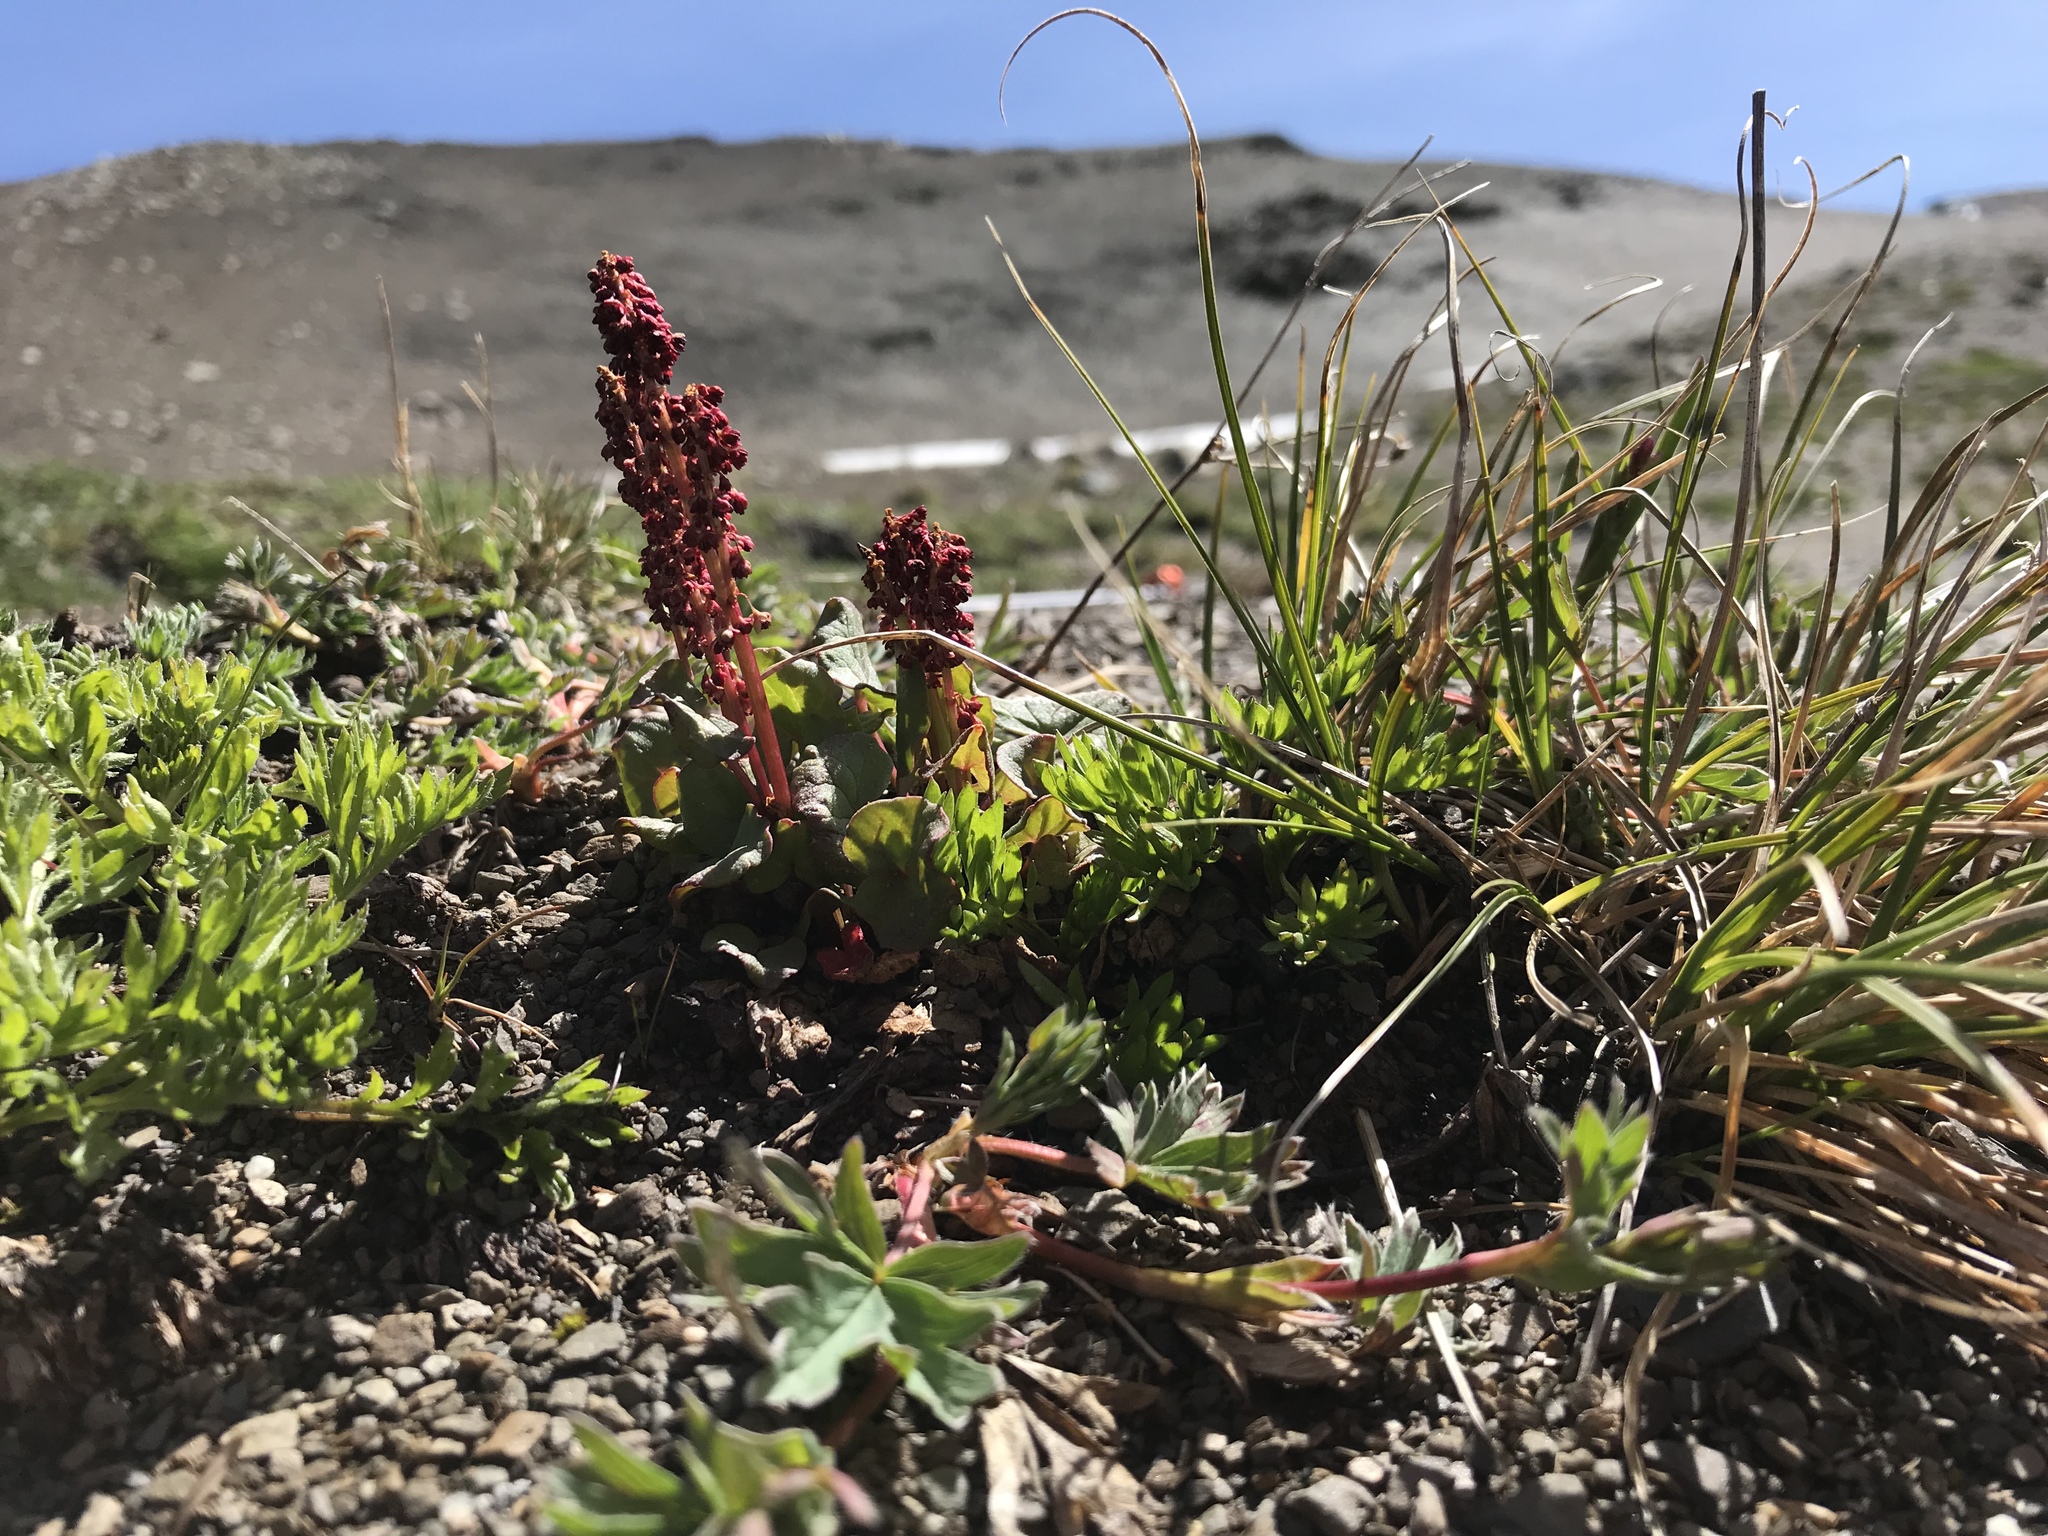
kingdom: Plantae
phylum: Tracheophyta
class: Magnoliopsida
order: Caryophyllales
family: Polygonaceae
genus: Oxyria
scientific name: Oxyria digyna
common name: Alpine mountain-sorrel
